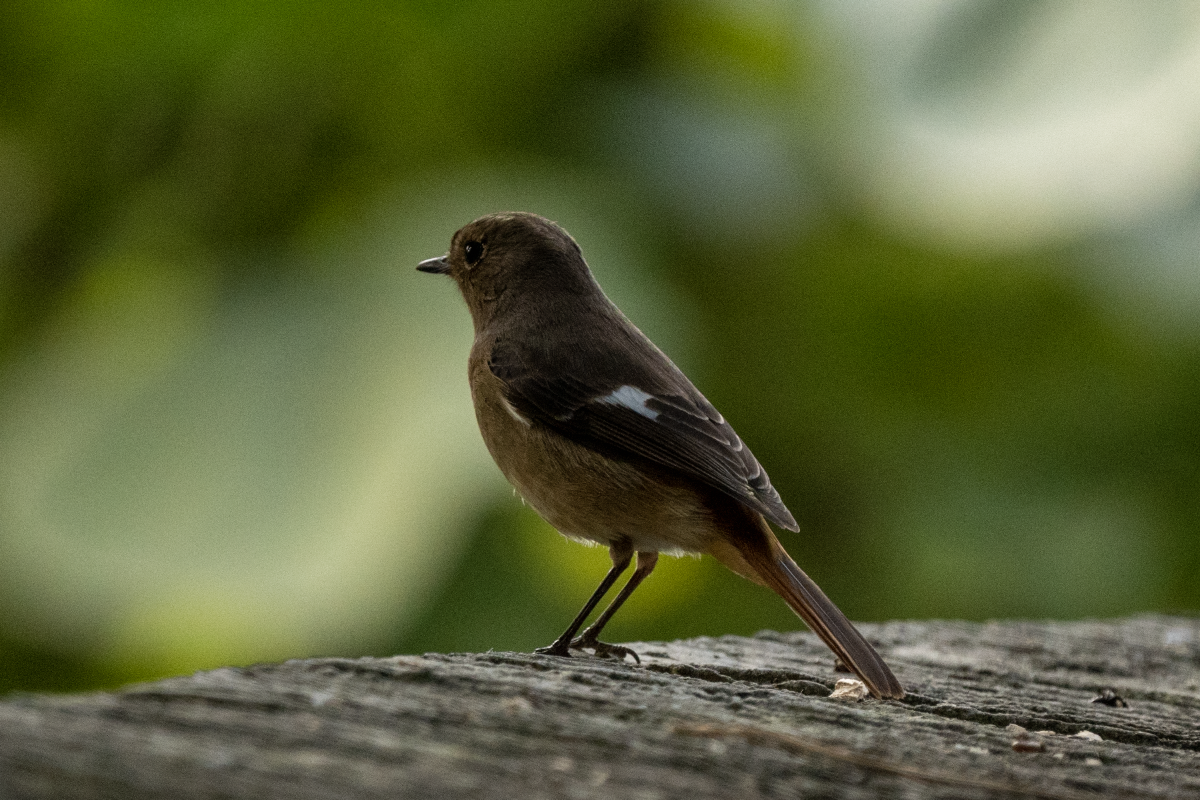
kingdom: Animalia
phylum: Chordata
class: Aves
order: Passeriformes
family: Muscicapidae
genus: Phoenicurus
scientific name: Phoenicurus auroreus
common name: Daurian redstart
